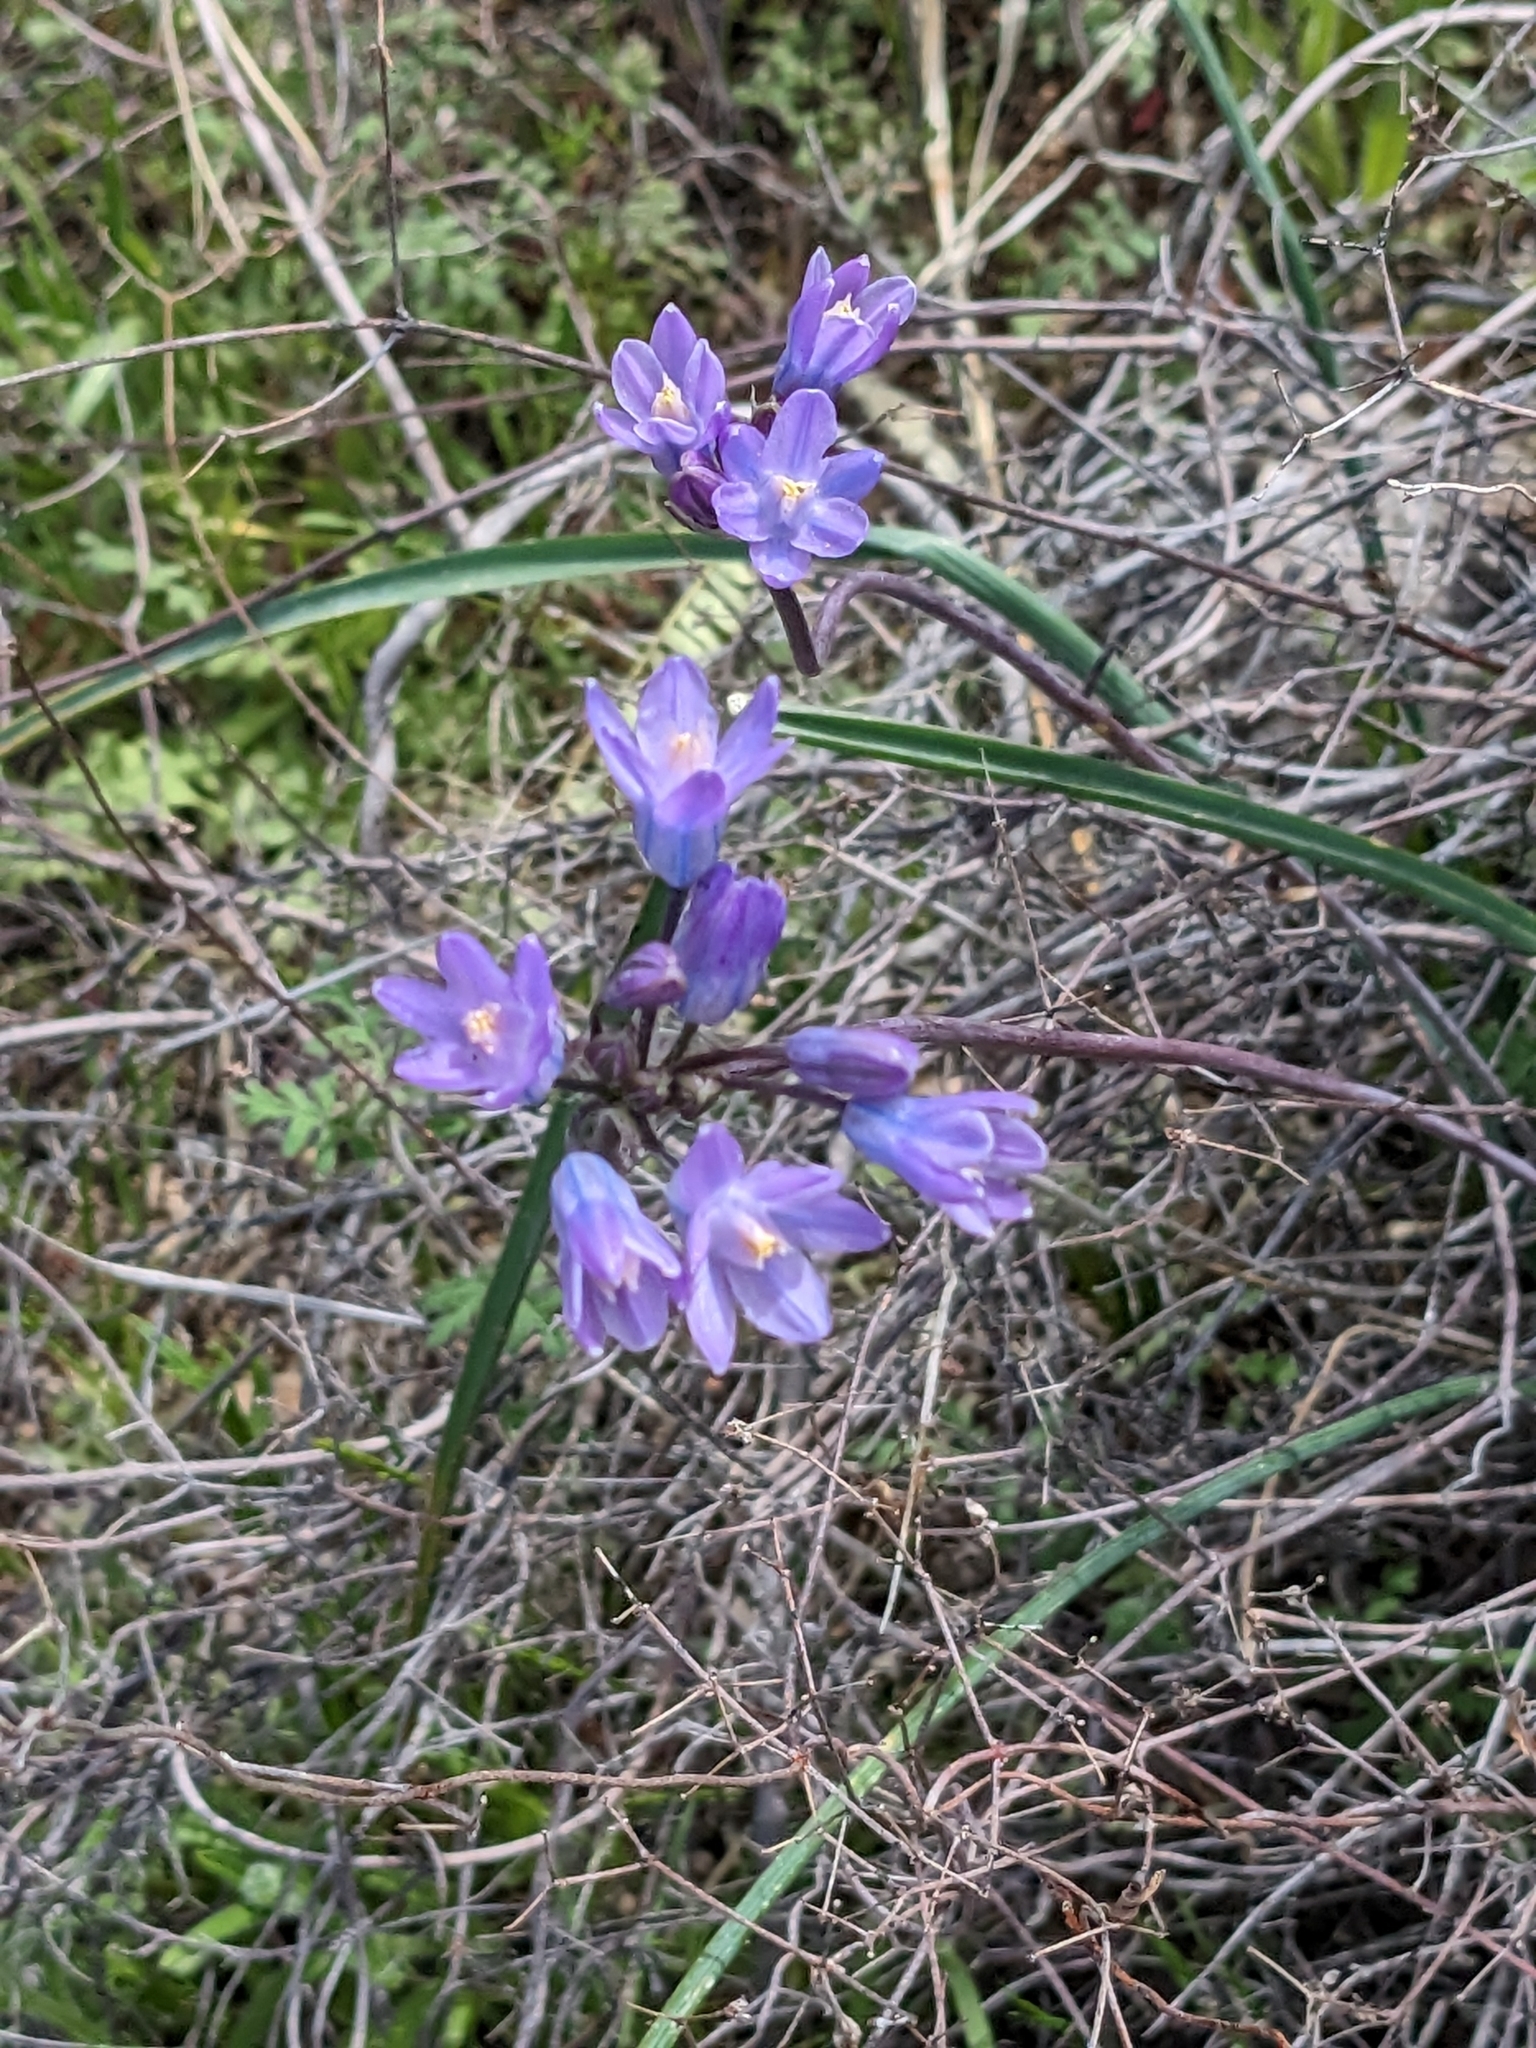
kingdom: Plantae
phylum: Tracheophyta
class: Liliopsida
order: Asparagales
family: Asparagaceae
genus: Dipterostemon
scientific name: Dipterostemon capitatus
